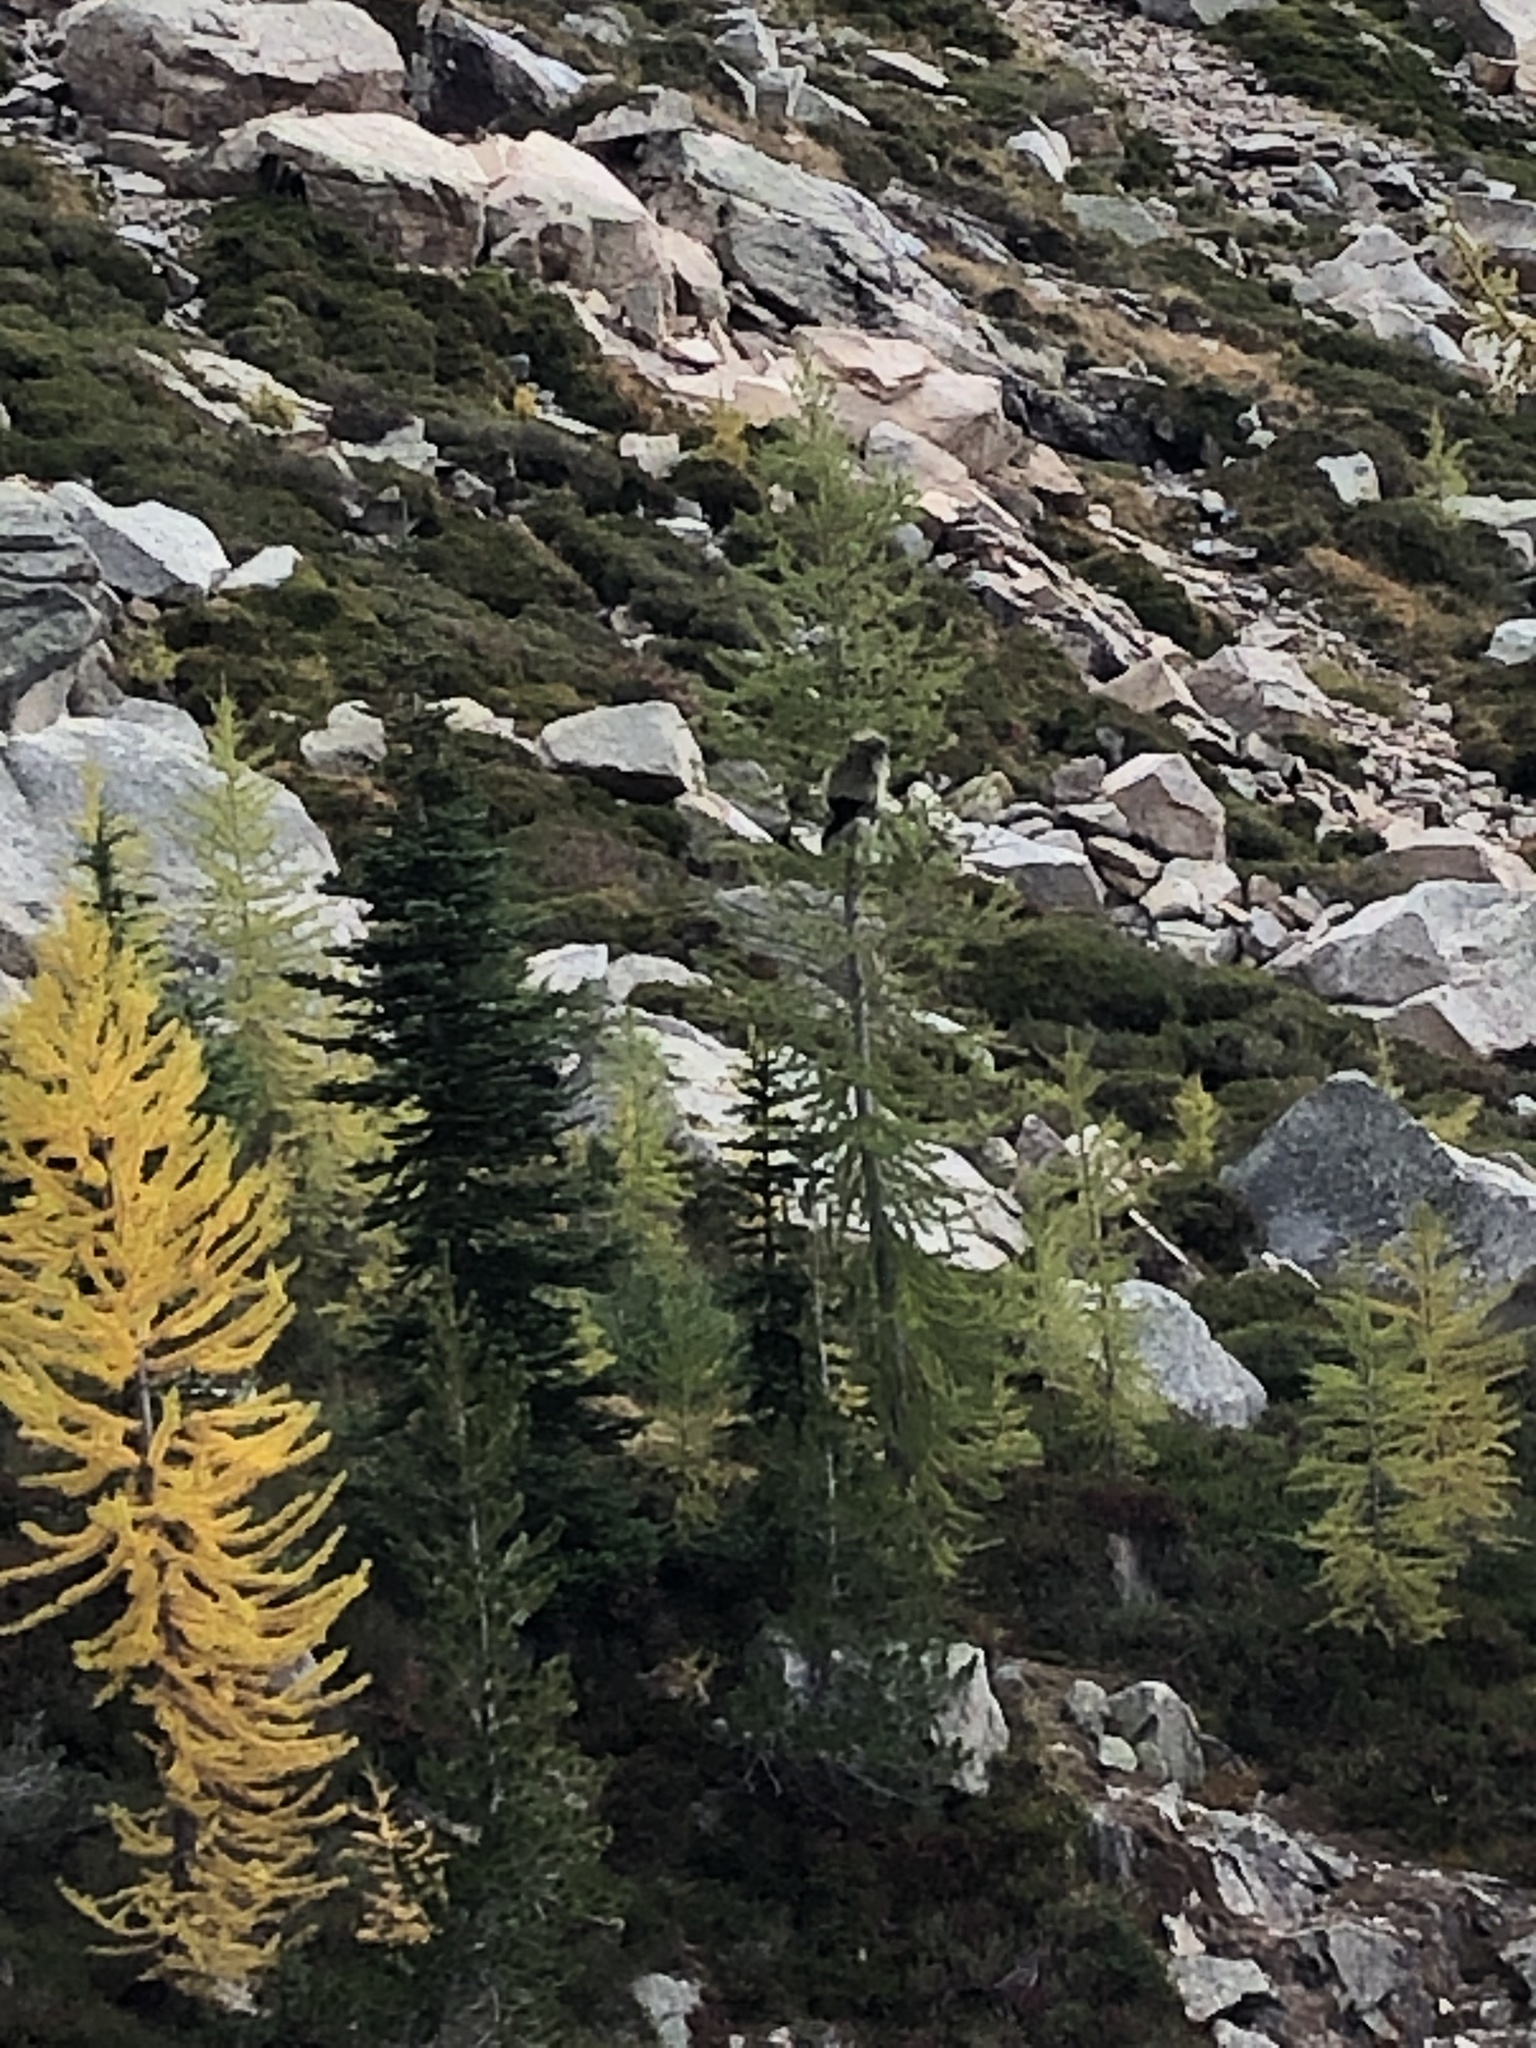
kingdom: Plantae
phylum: Tracheophyta
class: Pinopsida
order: Pinales
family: Pinaceae
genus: Larix
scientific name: Larix lyallii
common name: Alpine larch
